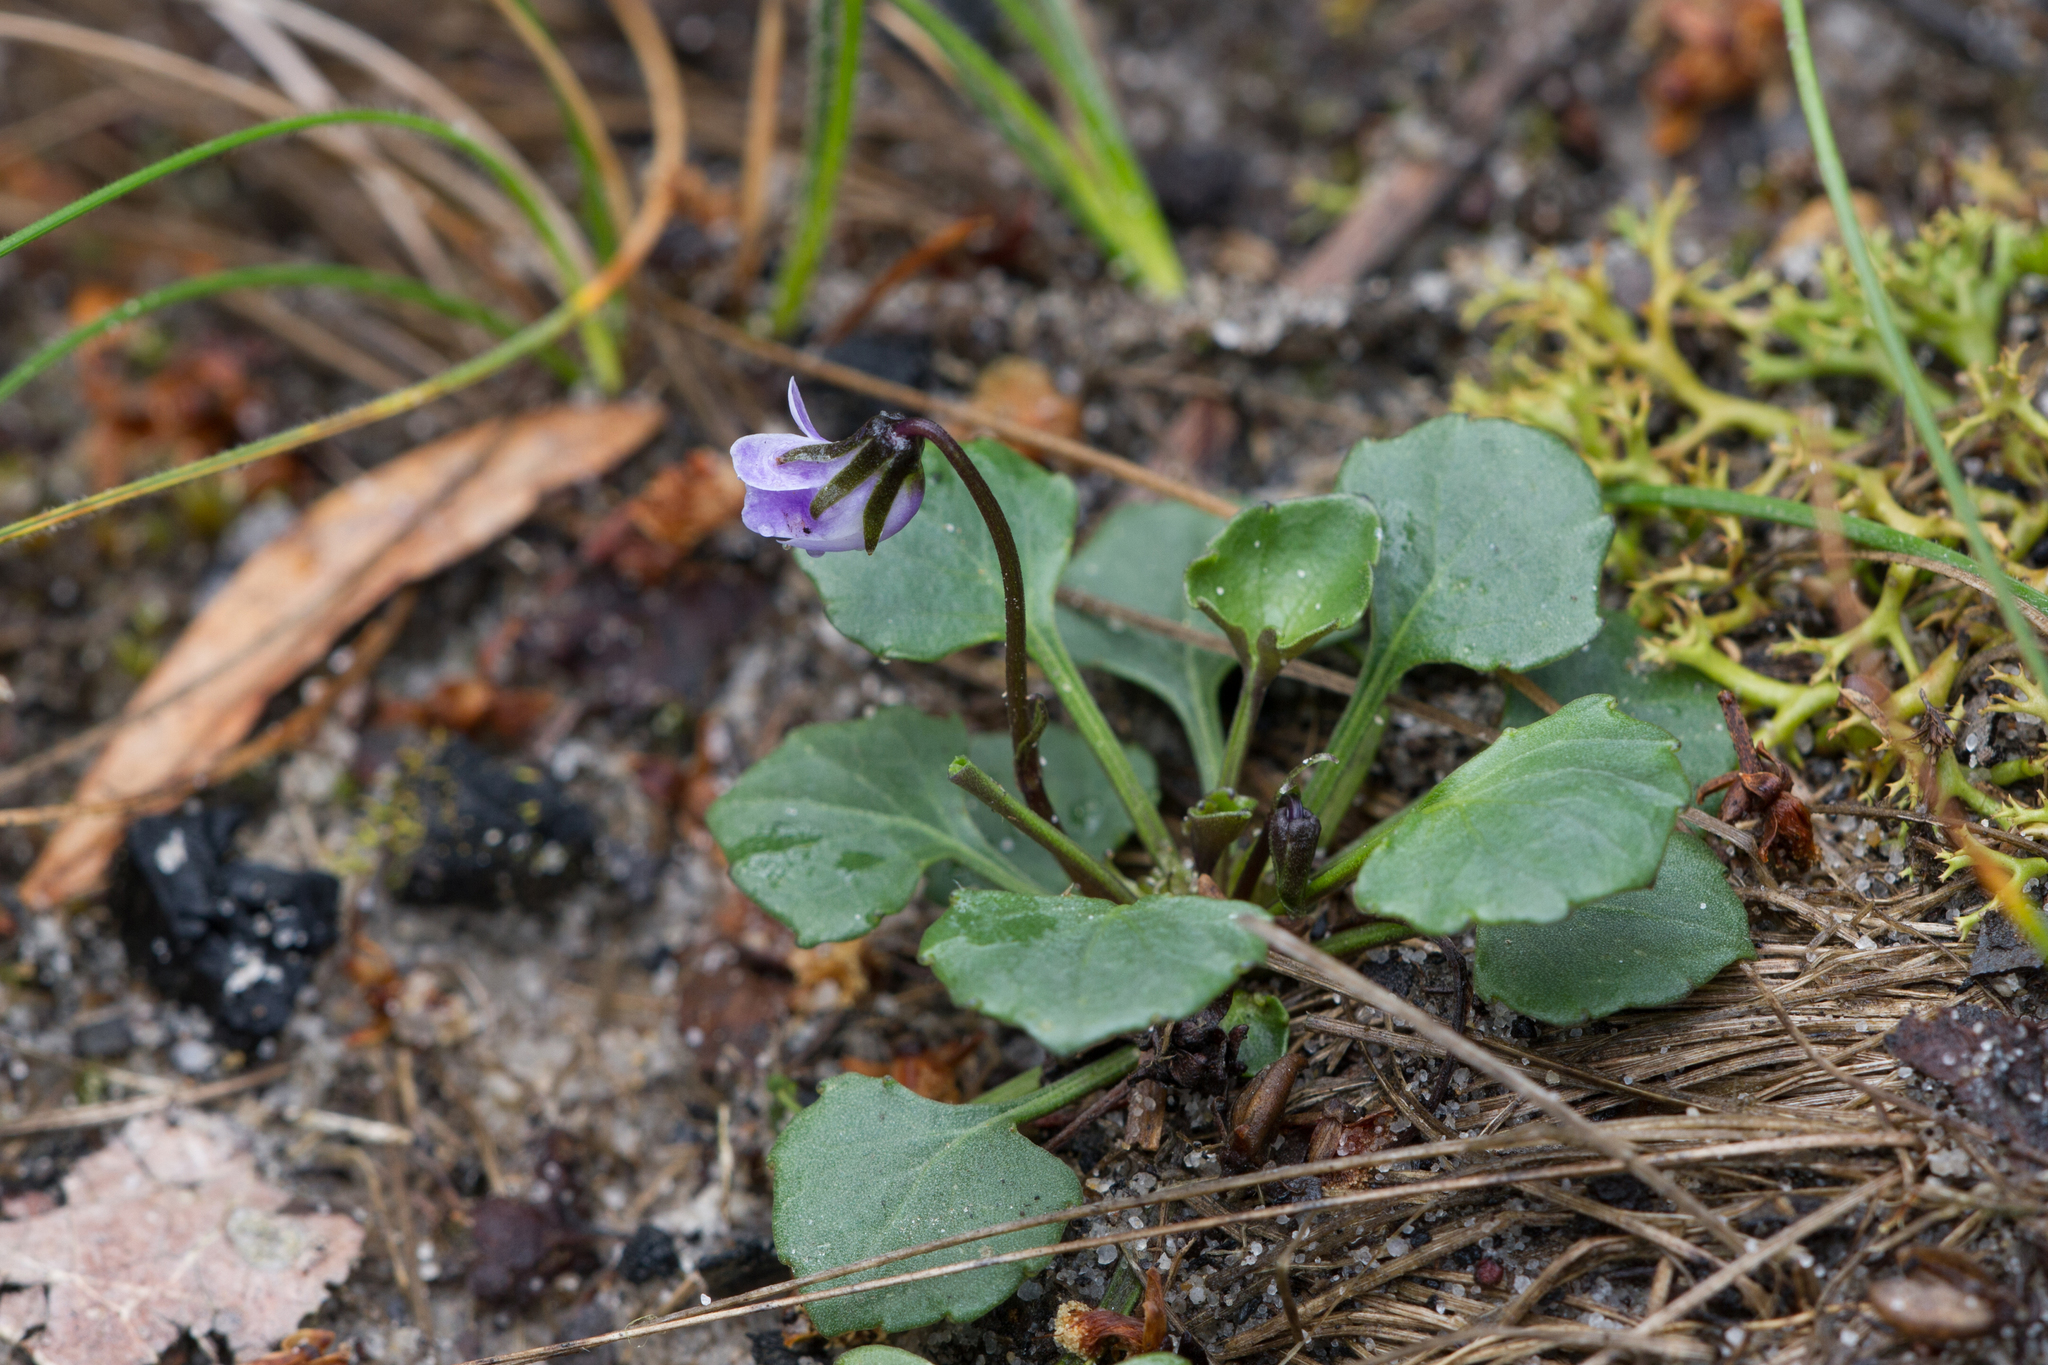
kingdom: Plantae
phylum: Tracheophyta
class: Magnoliopsida
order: Malpighiales
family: Violaceae
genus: Viola
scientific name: Viola sieberiana
